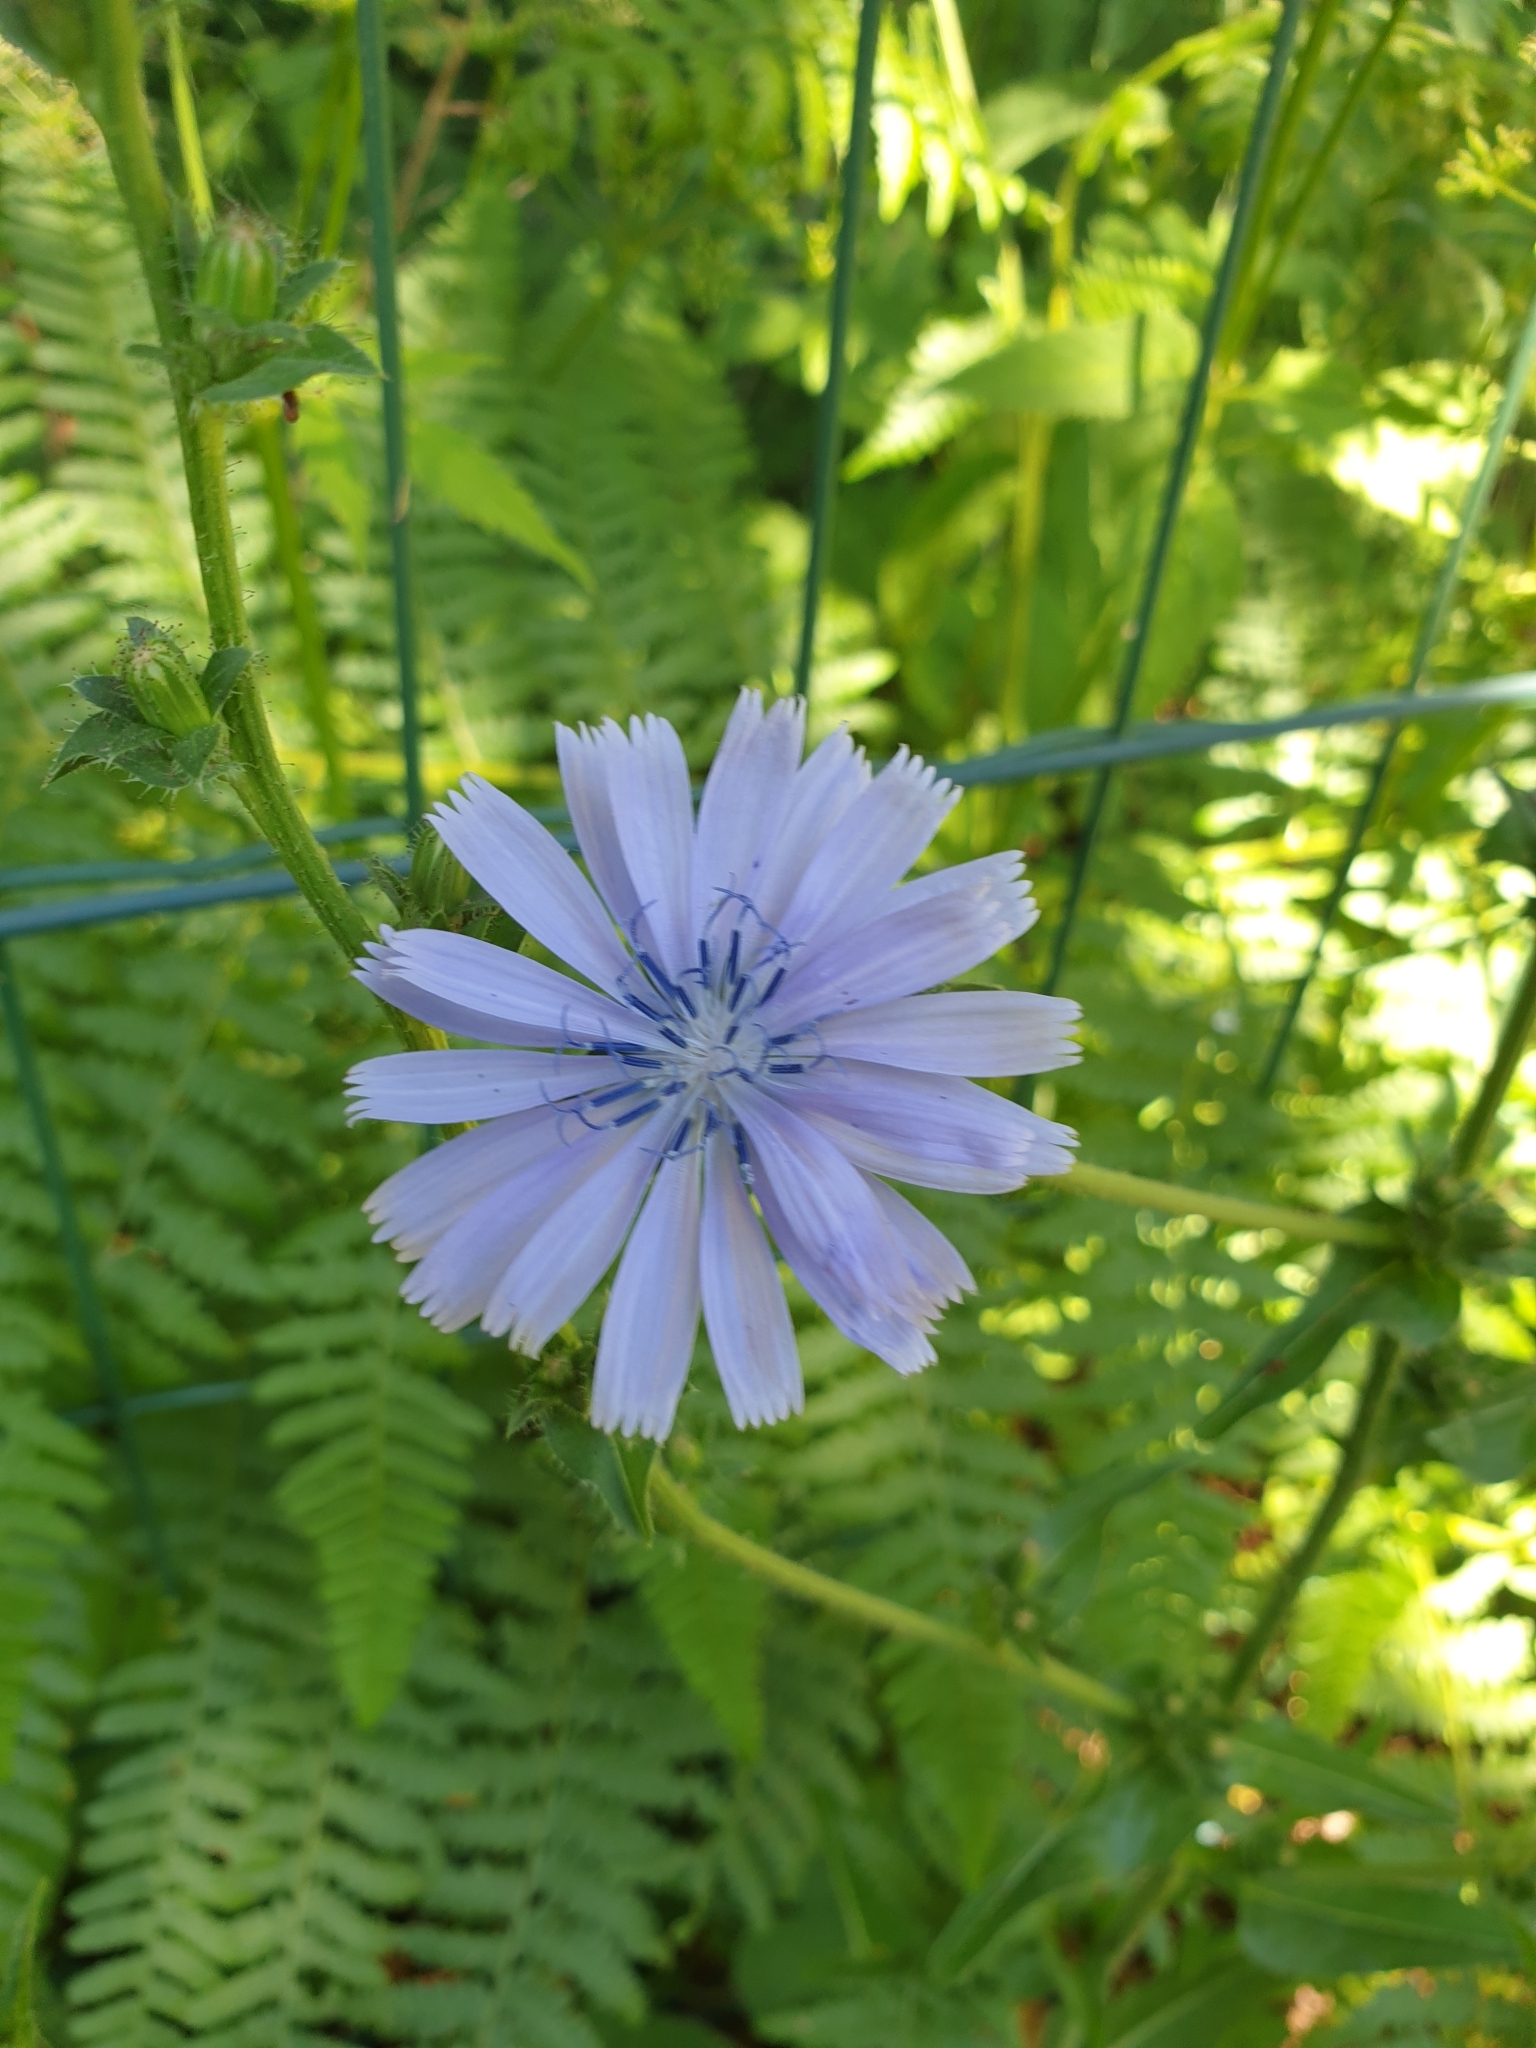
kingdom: Plantae
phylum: Tracheophyta
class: Magnoliopsida
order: Asterales
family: Asteraceae
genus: Cichorium
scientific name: Cichorium intybus
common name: Chicory
